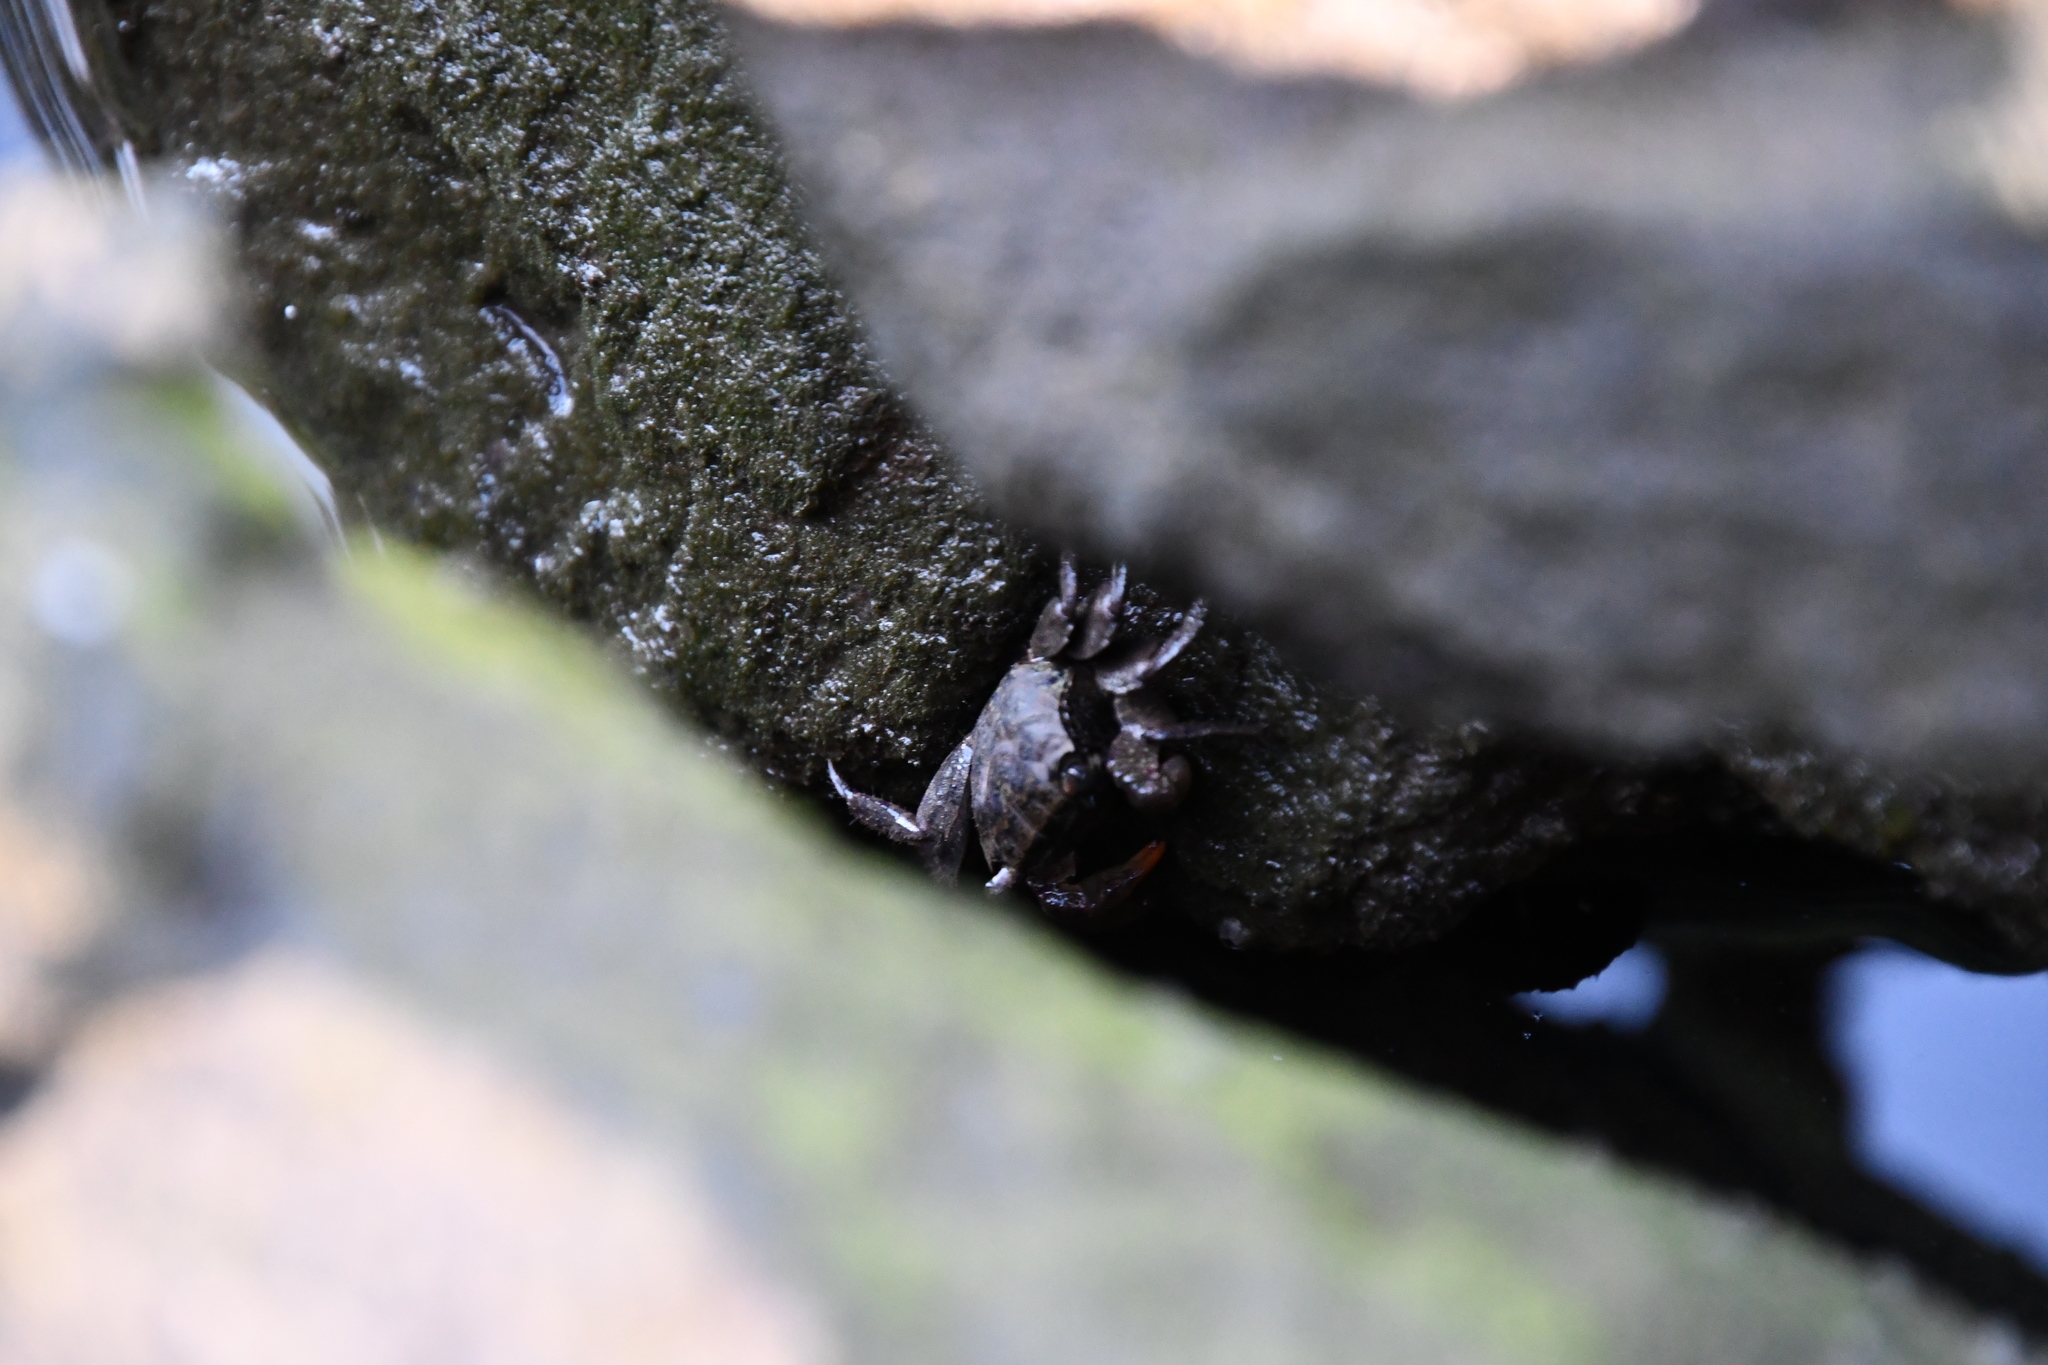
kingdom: Animalia
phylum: Arthropoda
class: Malacostraca
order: Decapoda
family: Sesarmidae
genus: Parasesarma
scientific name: Parasesarma erythodactylum
